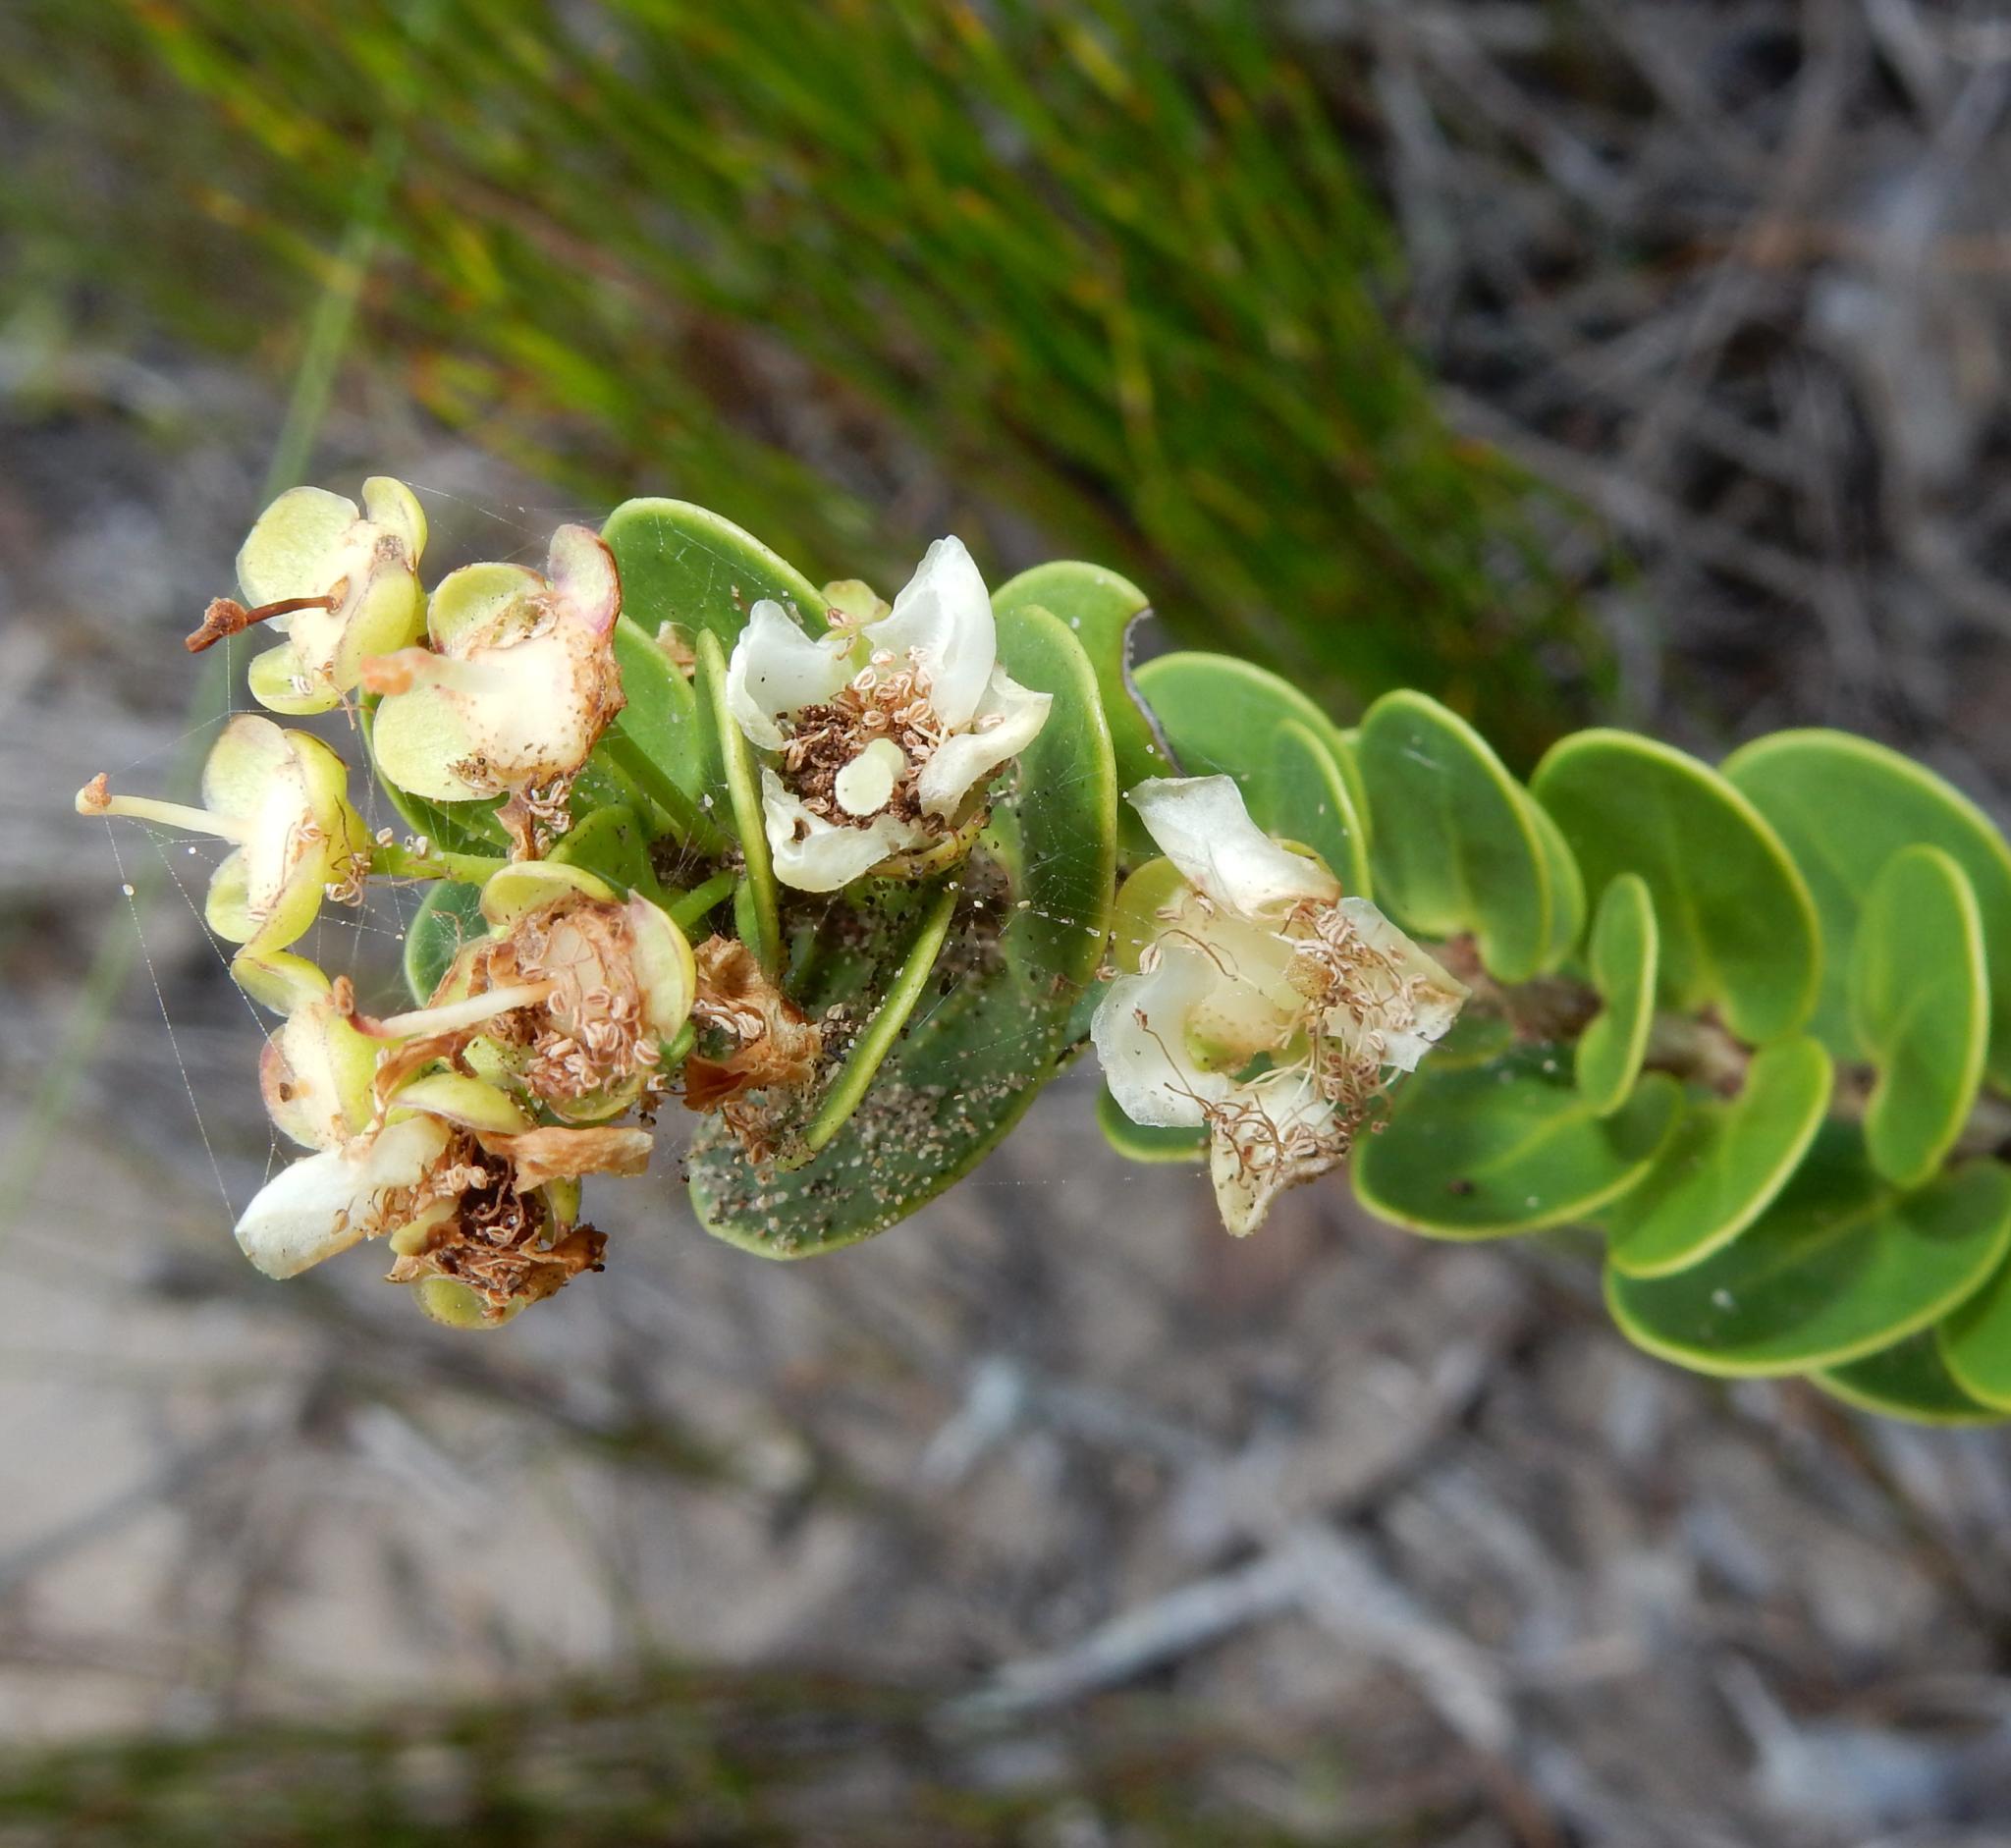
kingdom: Plantae
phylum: Tracheophyta
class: Magnoliopsida
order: Myrtales
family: Myrtaceae
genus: Eugenia
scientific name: Eugenia capensis
